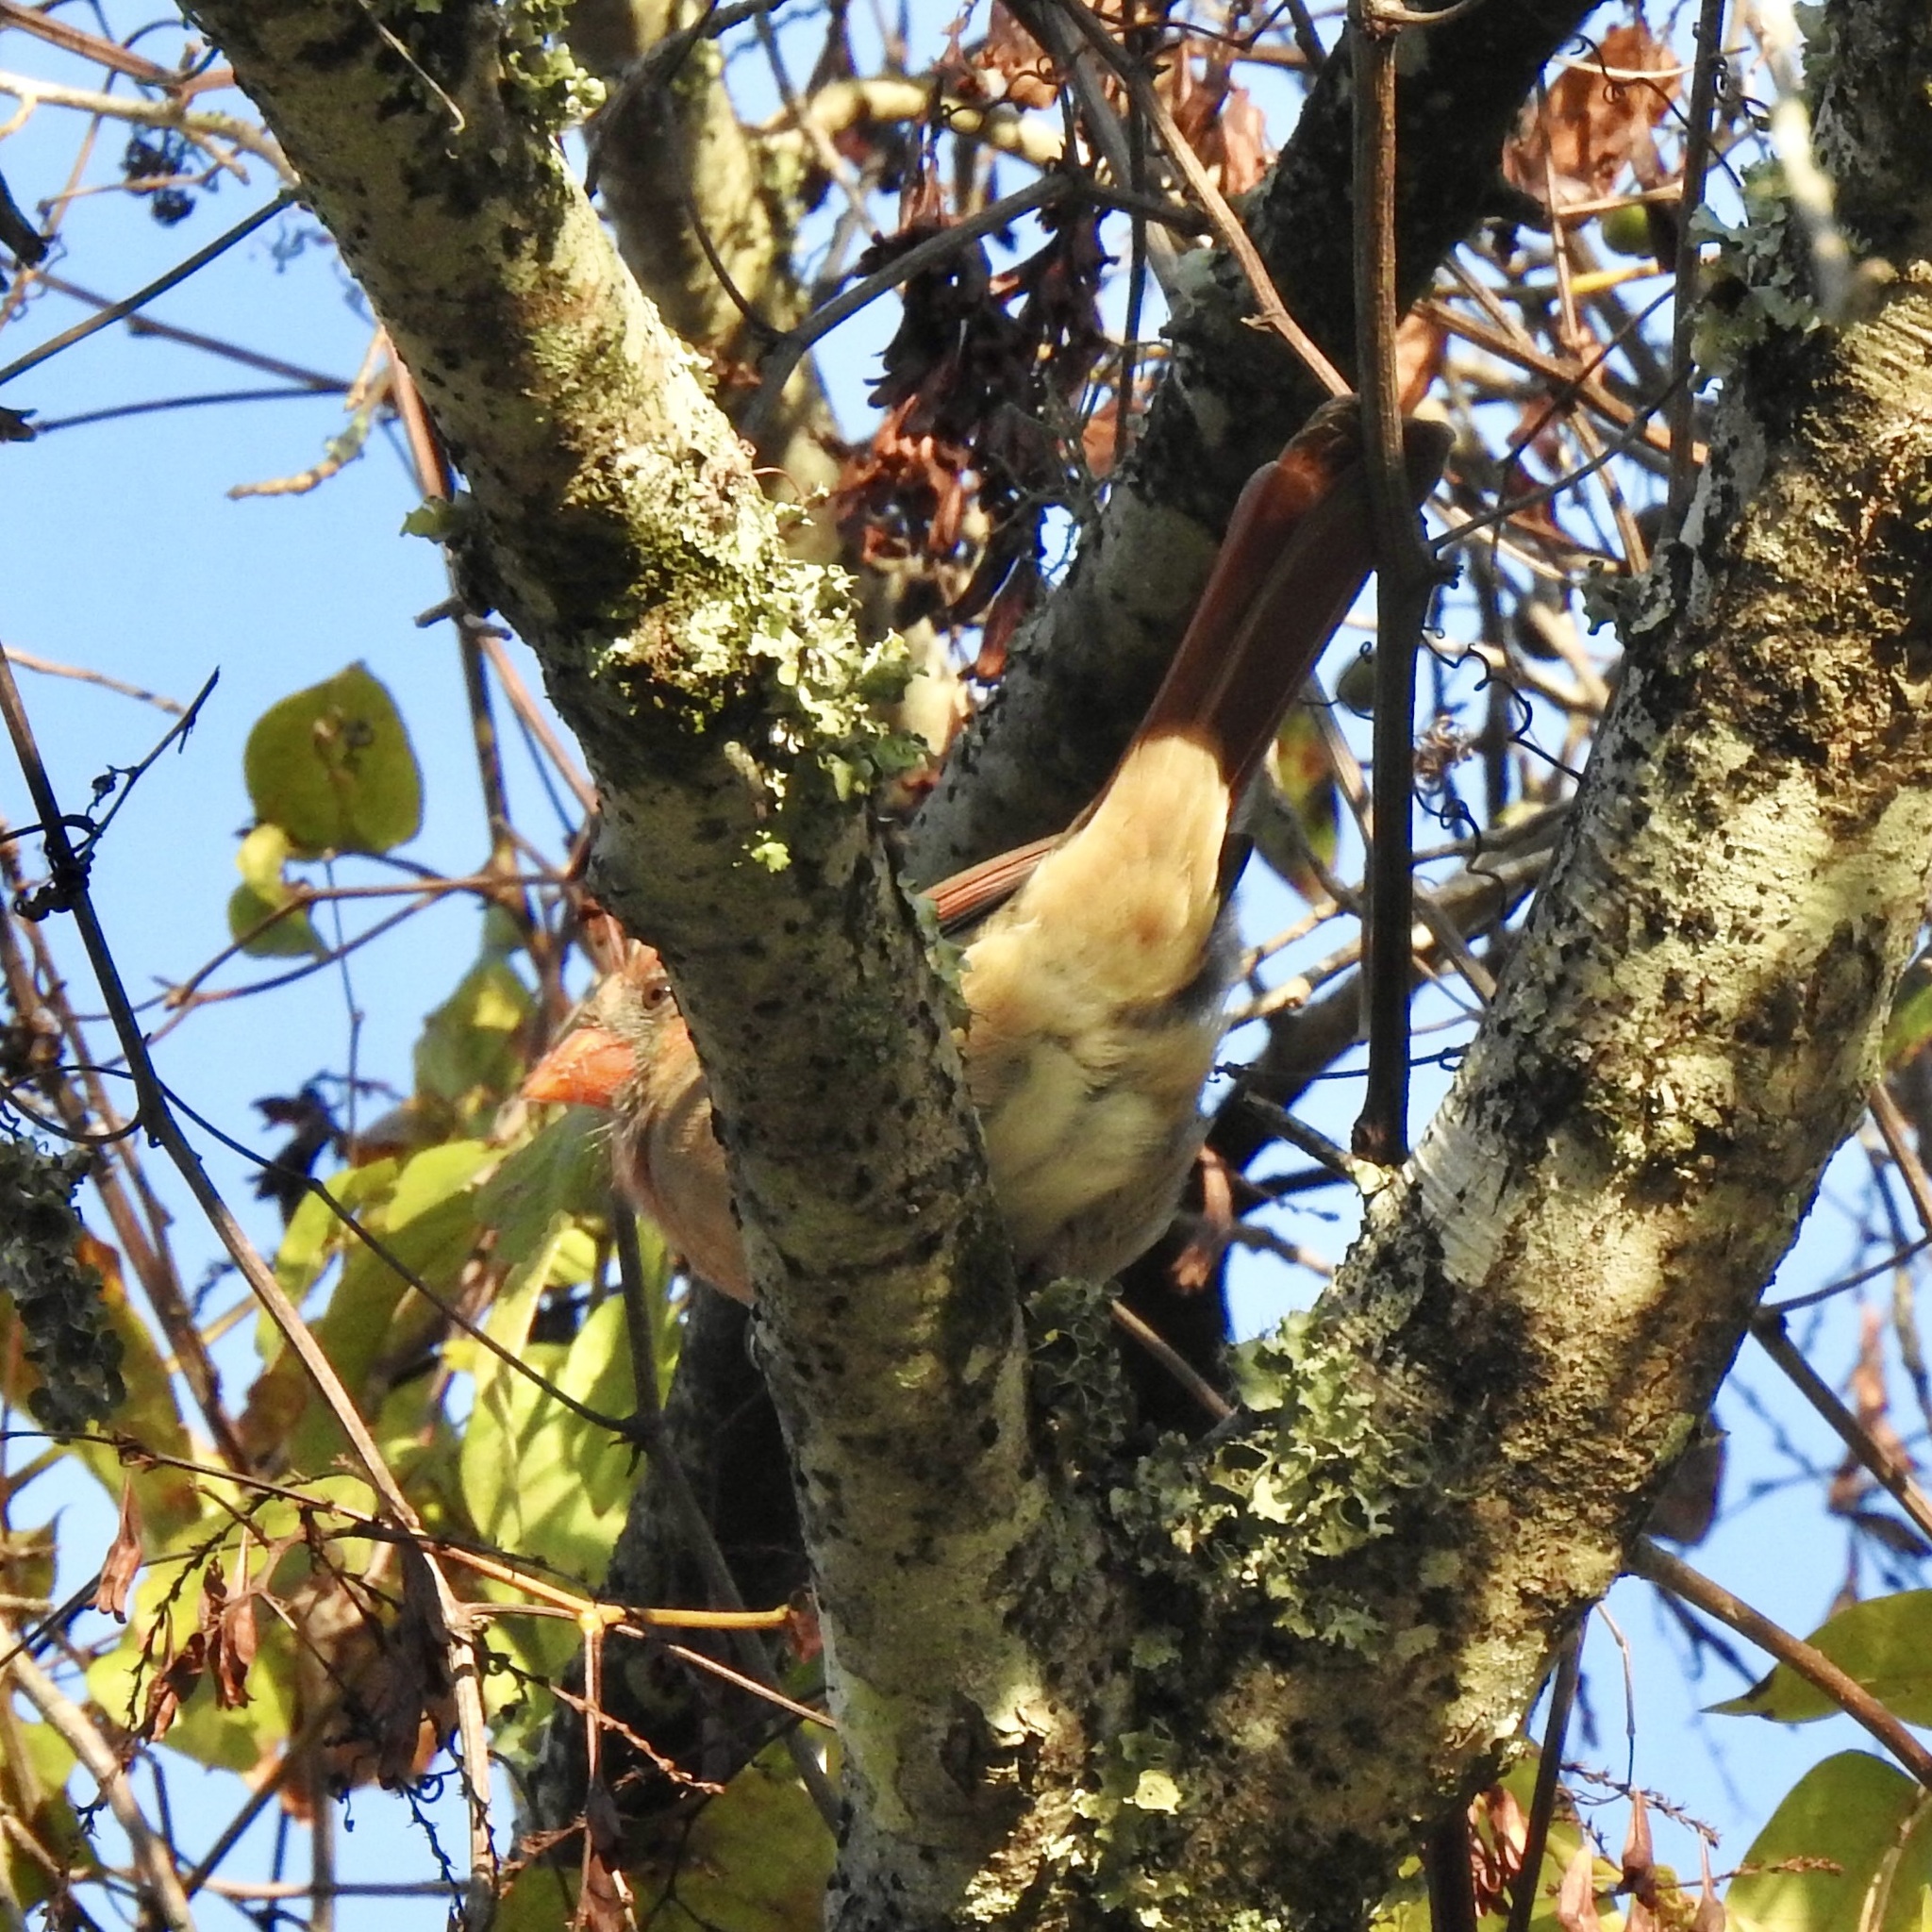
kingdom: Animalia
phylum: Chordata
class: Aves
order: Passeriformes
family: Cardinalidae
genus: Cardinalis
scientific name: Cardinalis cardinalis
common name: Northern cardinal
